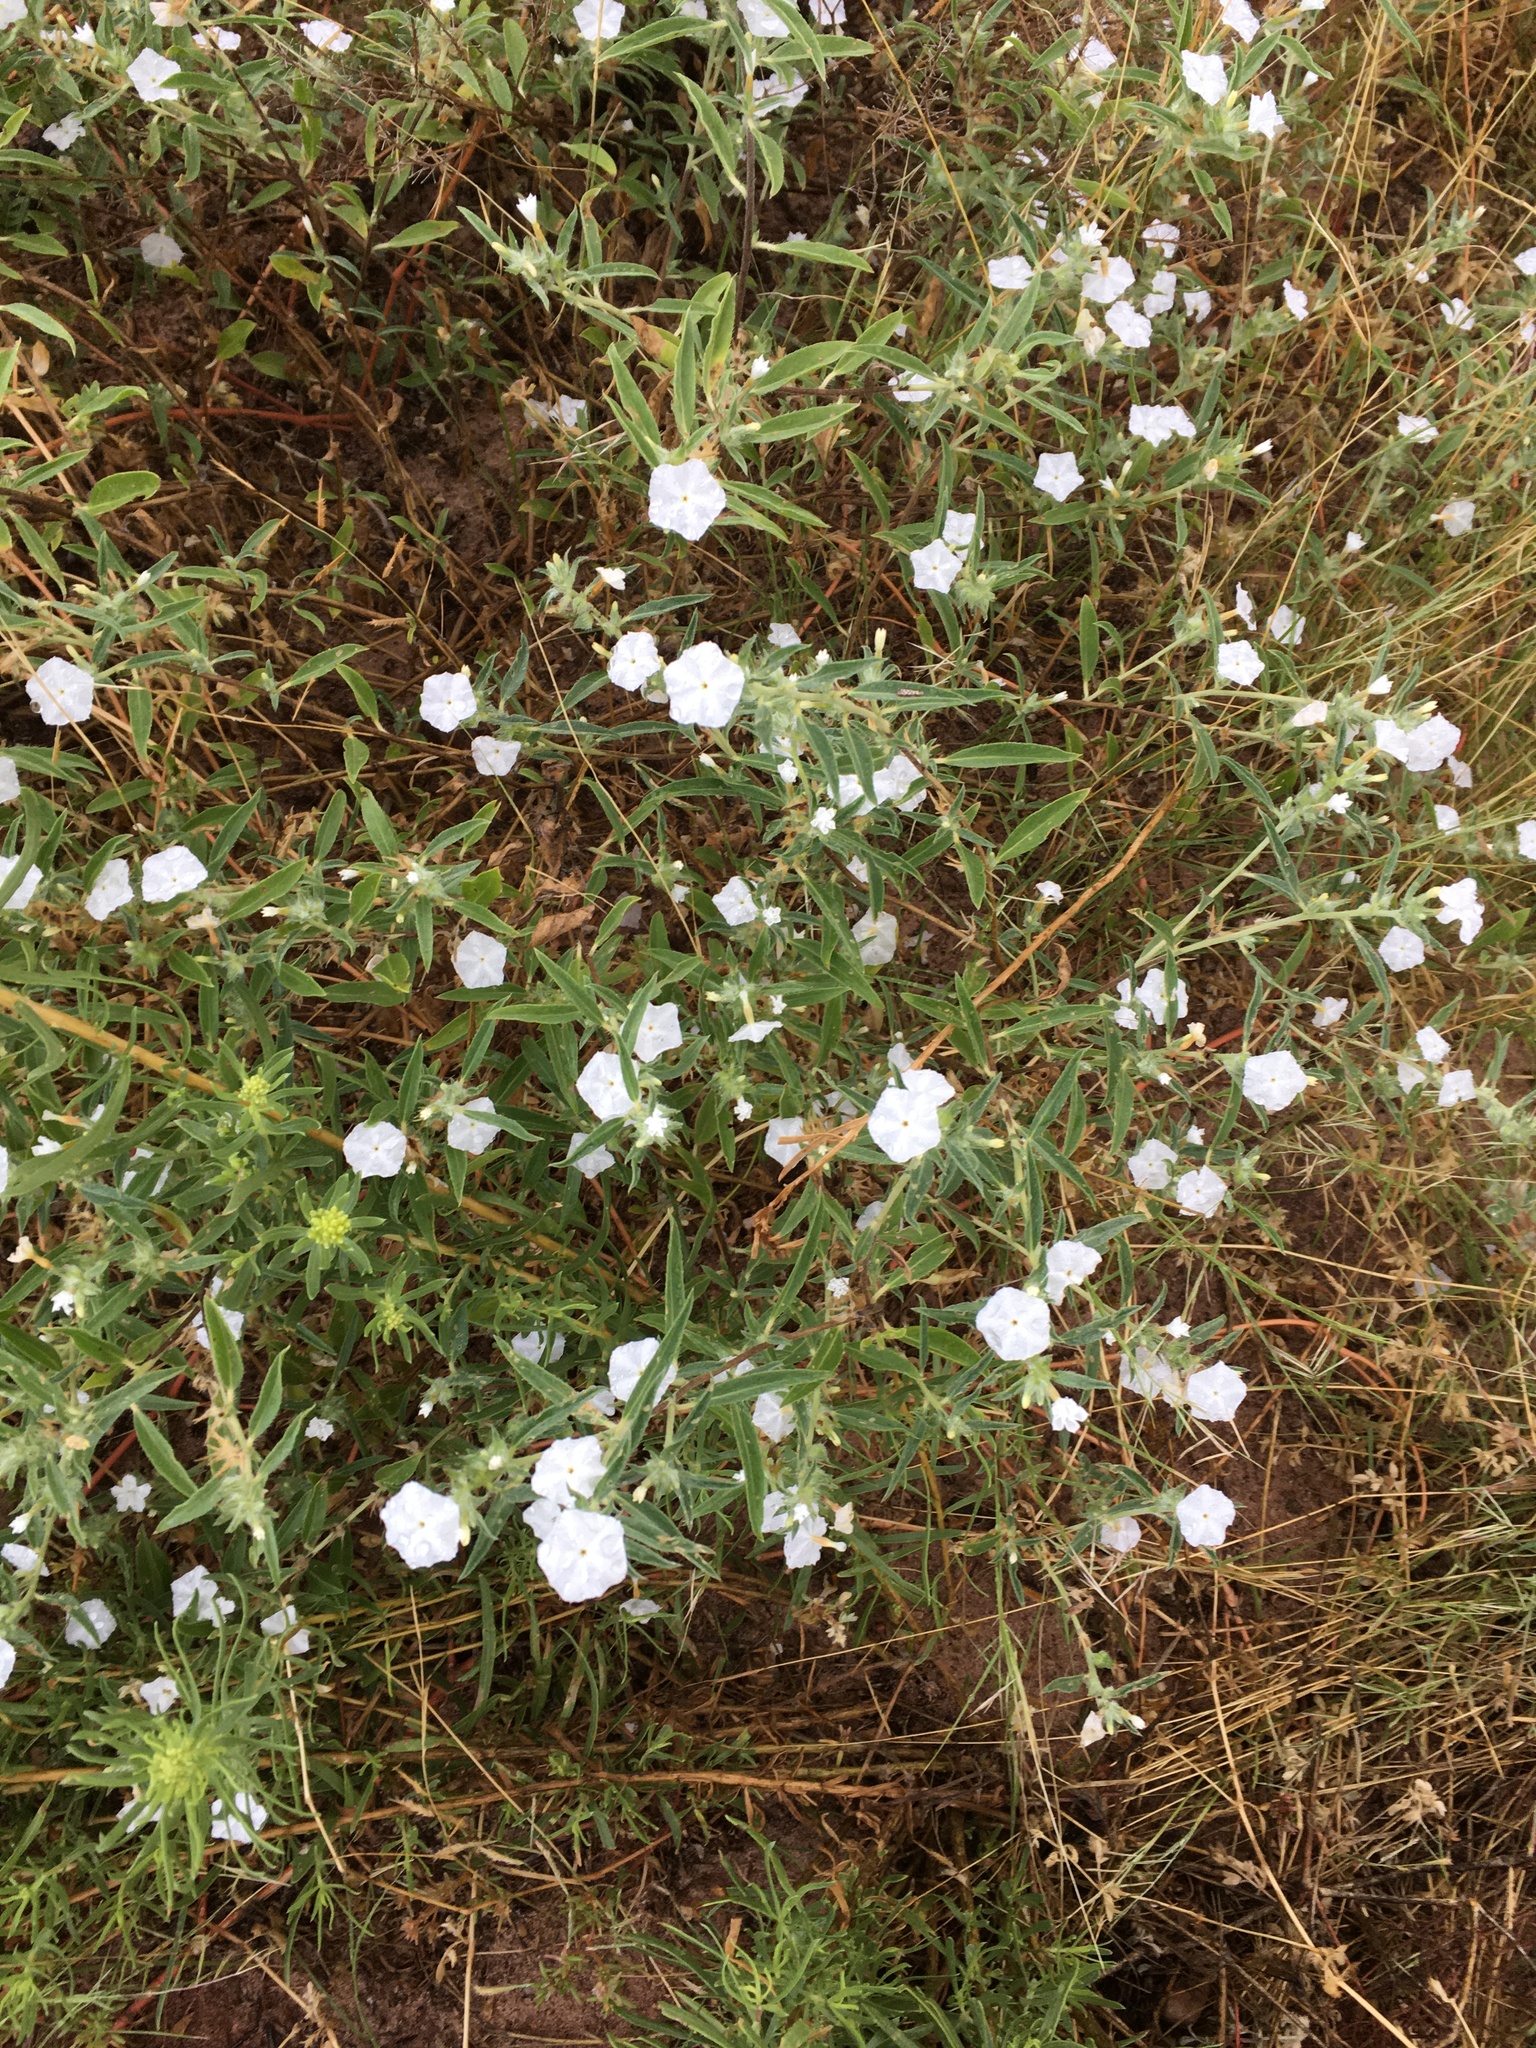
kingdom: Plantae
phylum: Tracheophyta
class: Magnoliopsida
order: Boraginales
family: Heliotropiaceae
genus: Euploca
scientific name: Euploca convolvulacea
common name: Bindweed heliotrope
